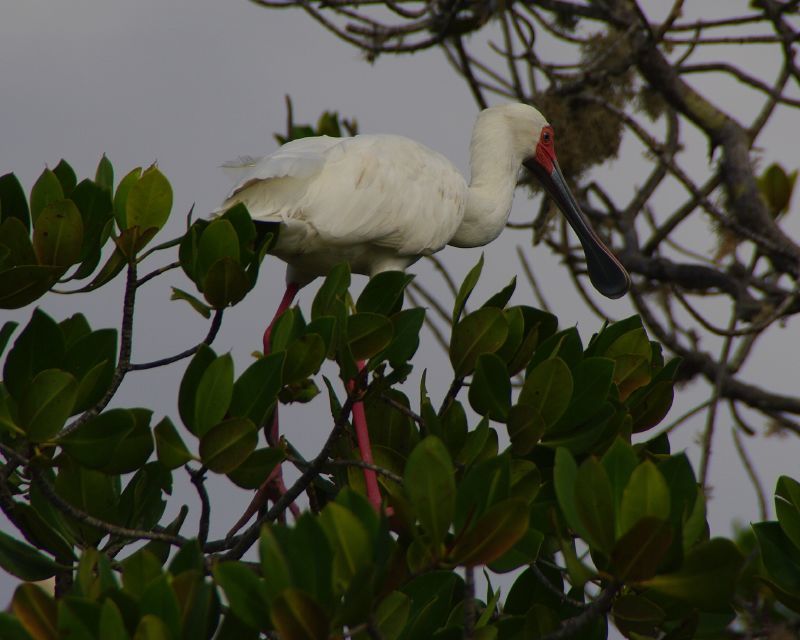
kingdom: Animalia
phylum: Chordata
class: Aves
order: Pelecaniformes
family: Threskiornithidae
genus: Platalea
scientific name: Platalea alba
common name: African spoonbill
